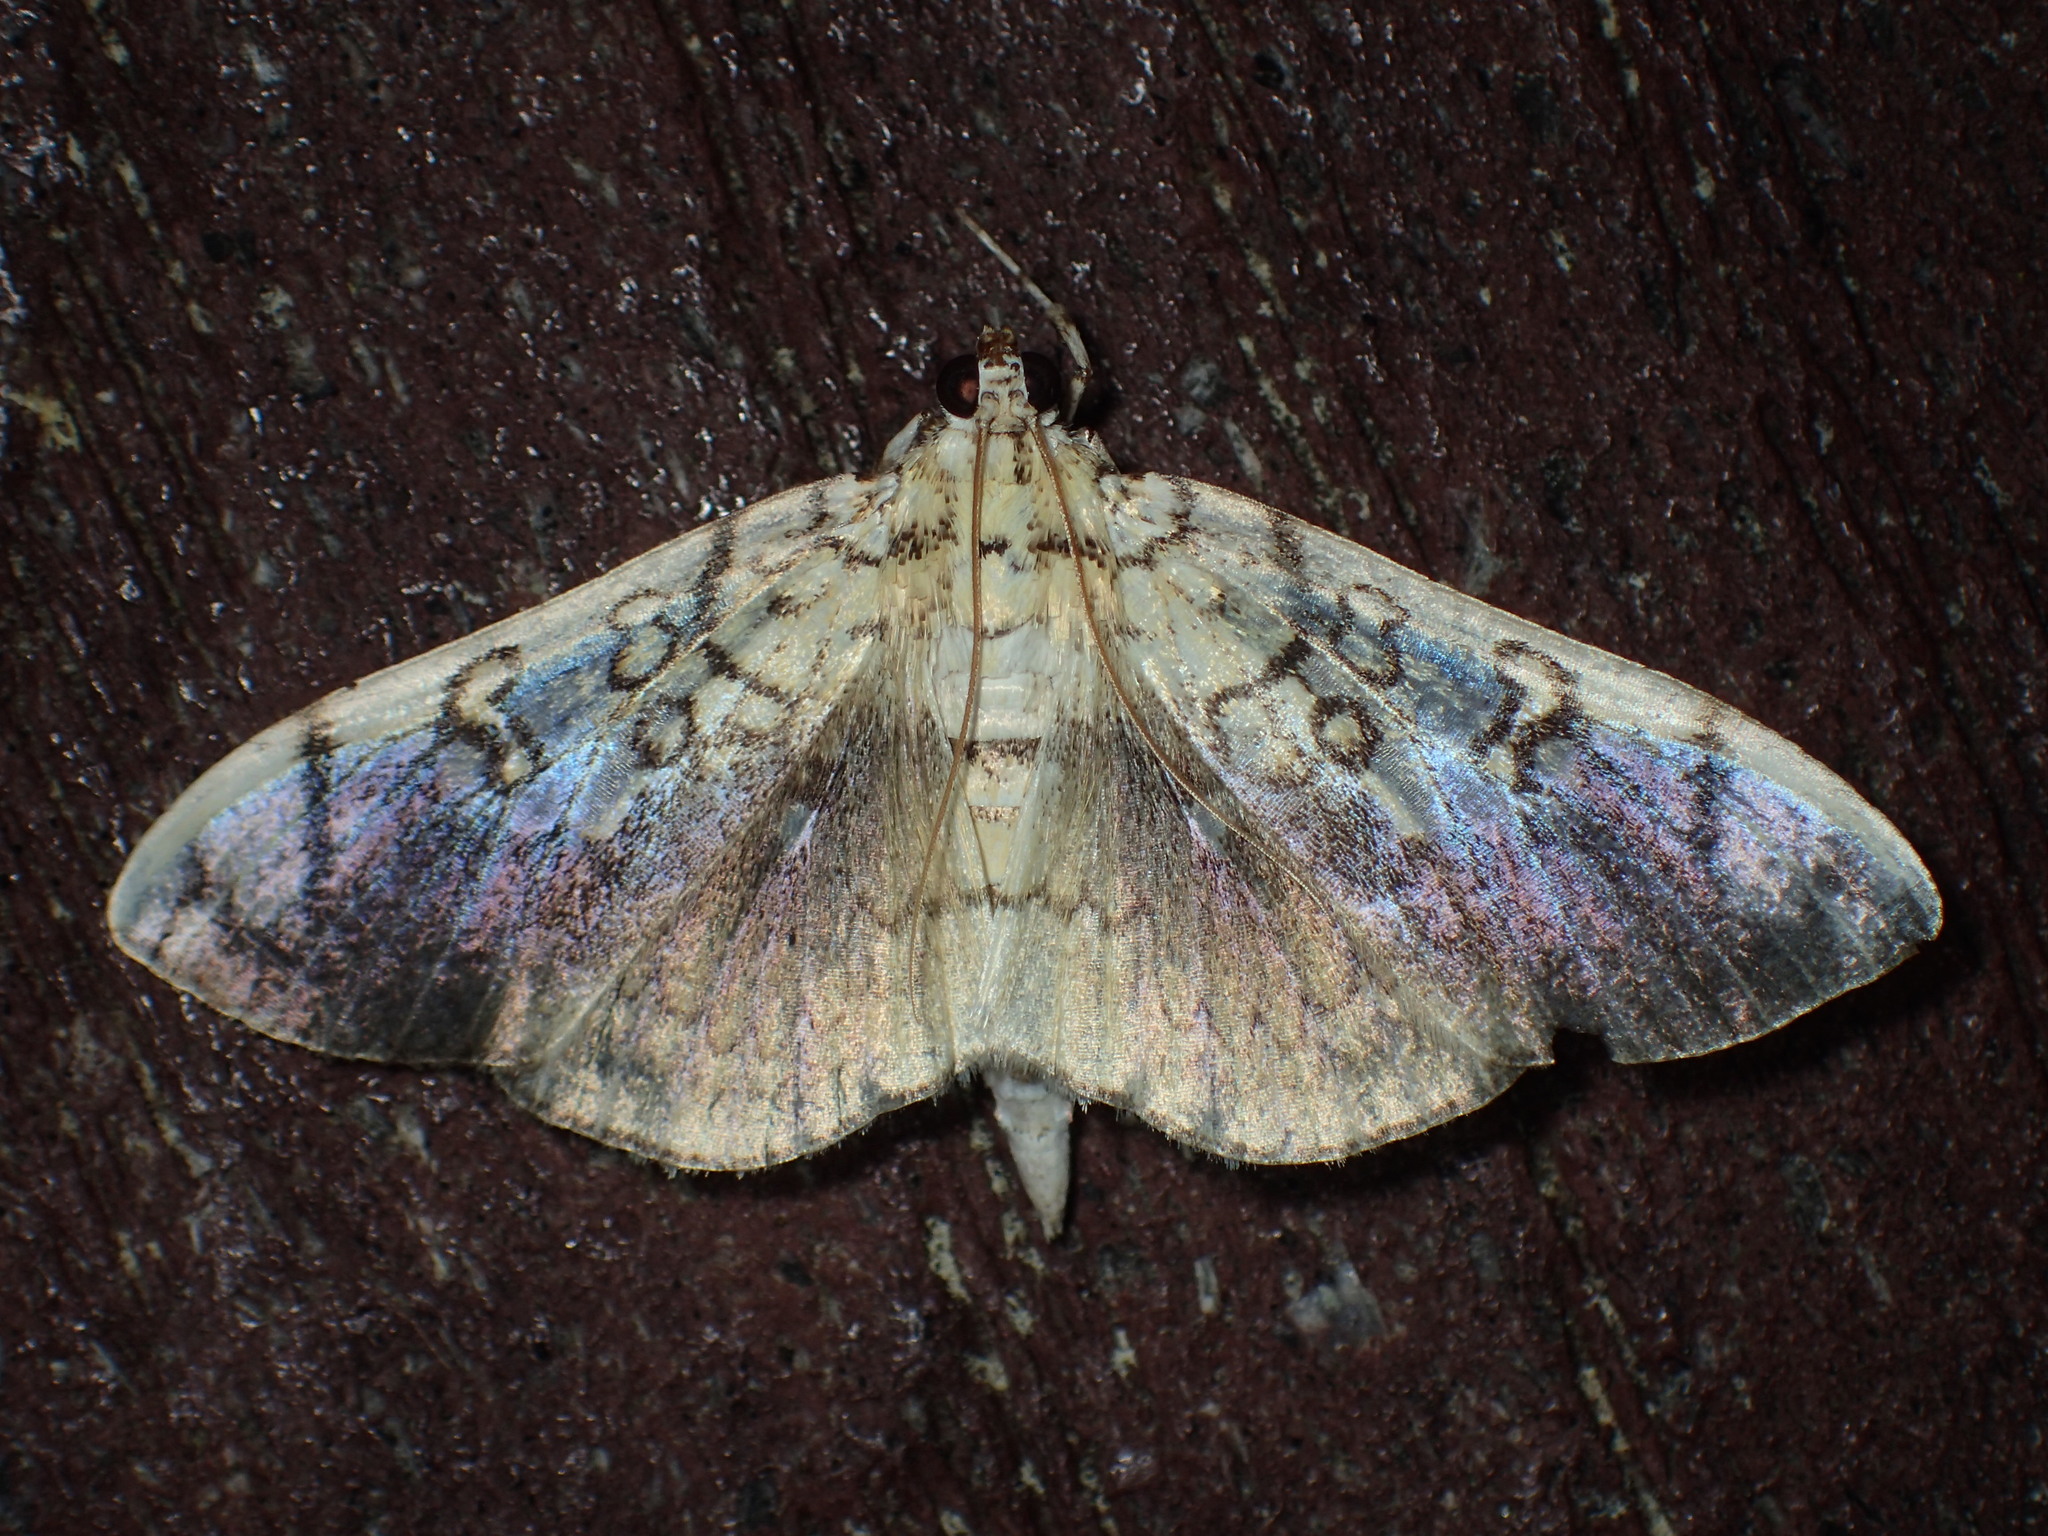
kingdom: Animalia
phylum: Arthropoda
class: Insecta
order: Lepidoptera
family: Crambidae
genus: Pantographa
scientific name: Pantographa limata
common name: Basswood leafroller moth
